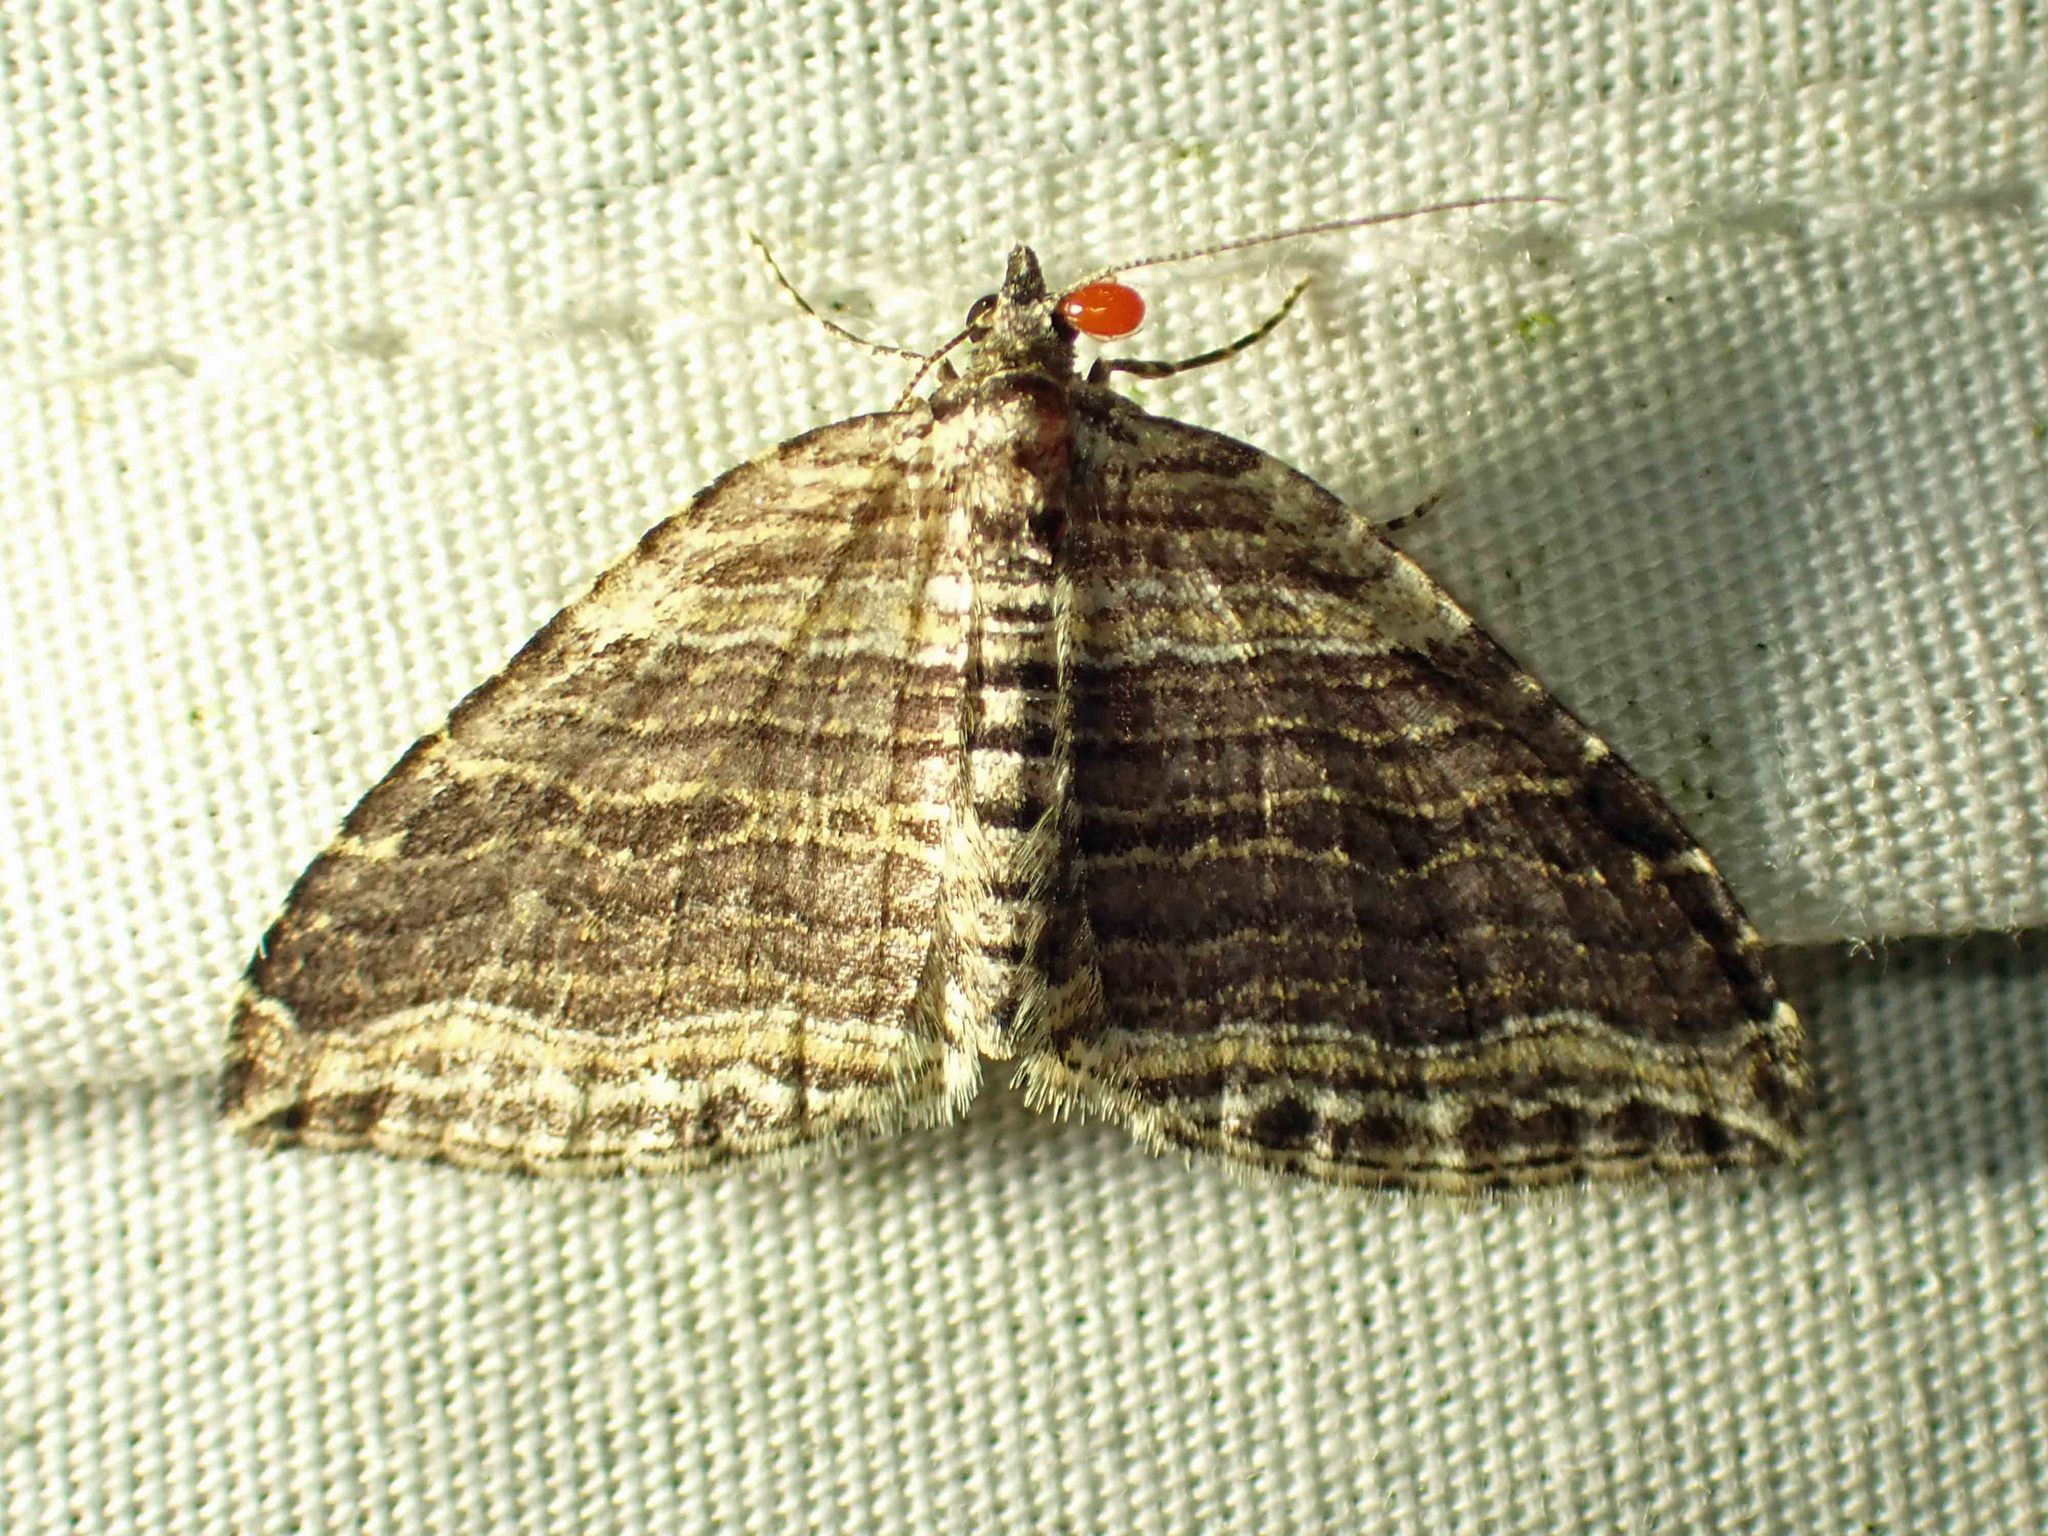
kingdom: Animalia
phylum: Arthropoda
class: Insecta
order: Lepidoptera
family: Geometridae
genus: Anticlea
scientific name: Anticlea multiferata
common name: Many-lined carpet
